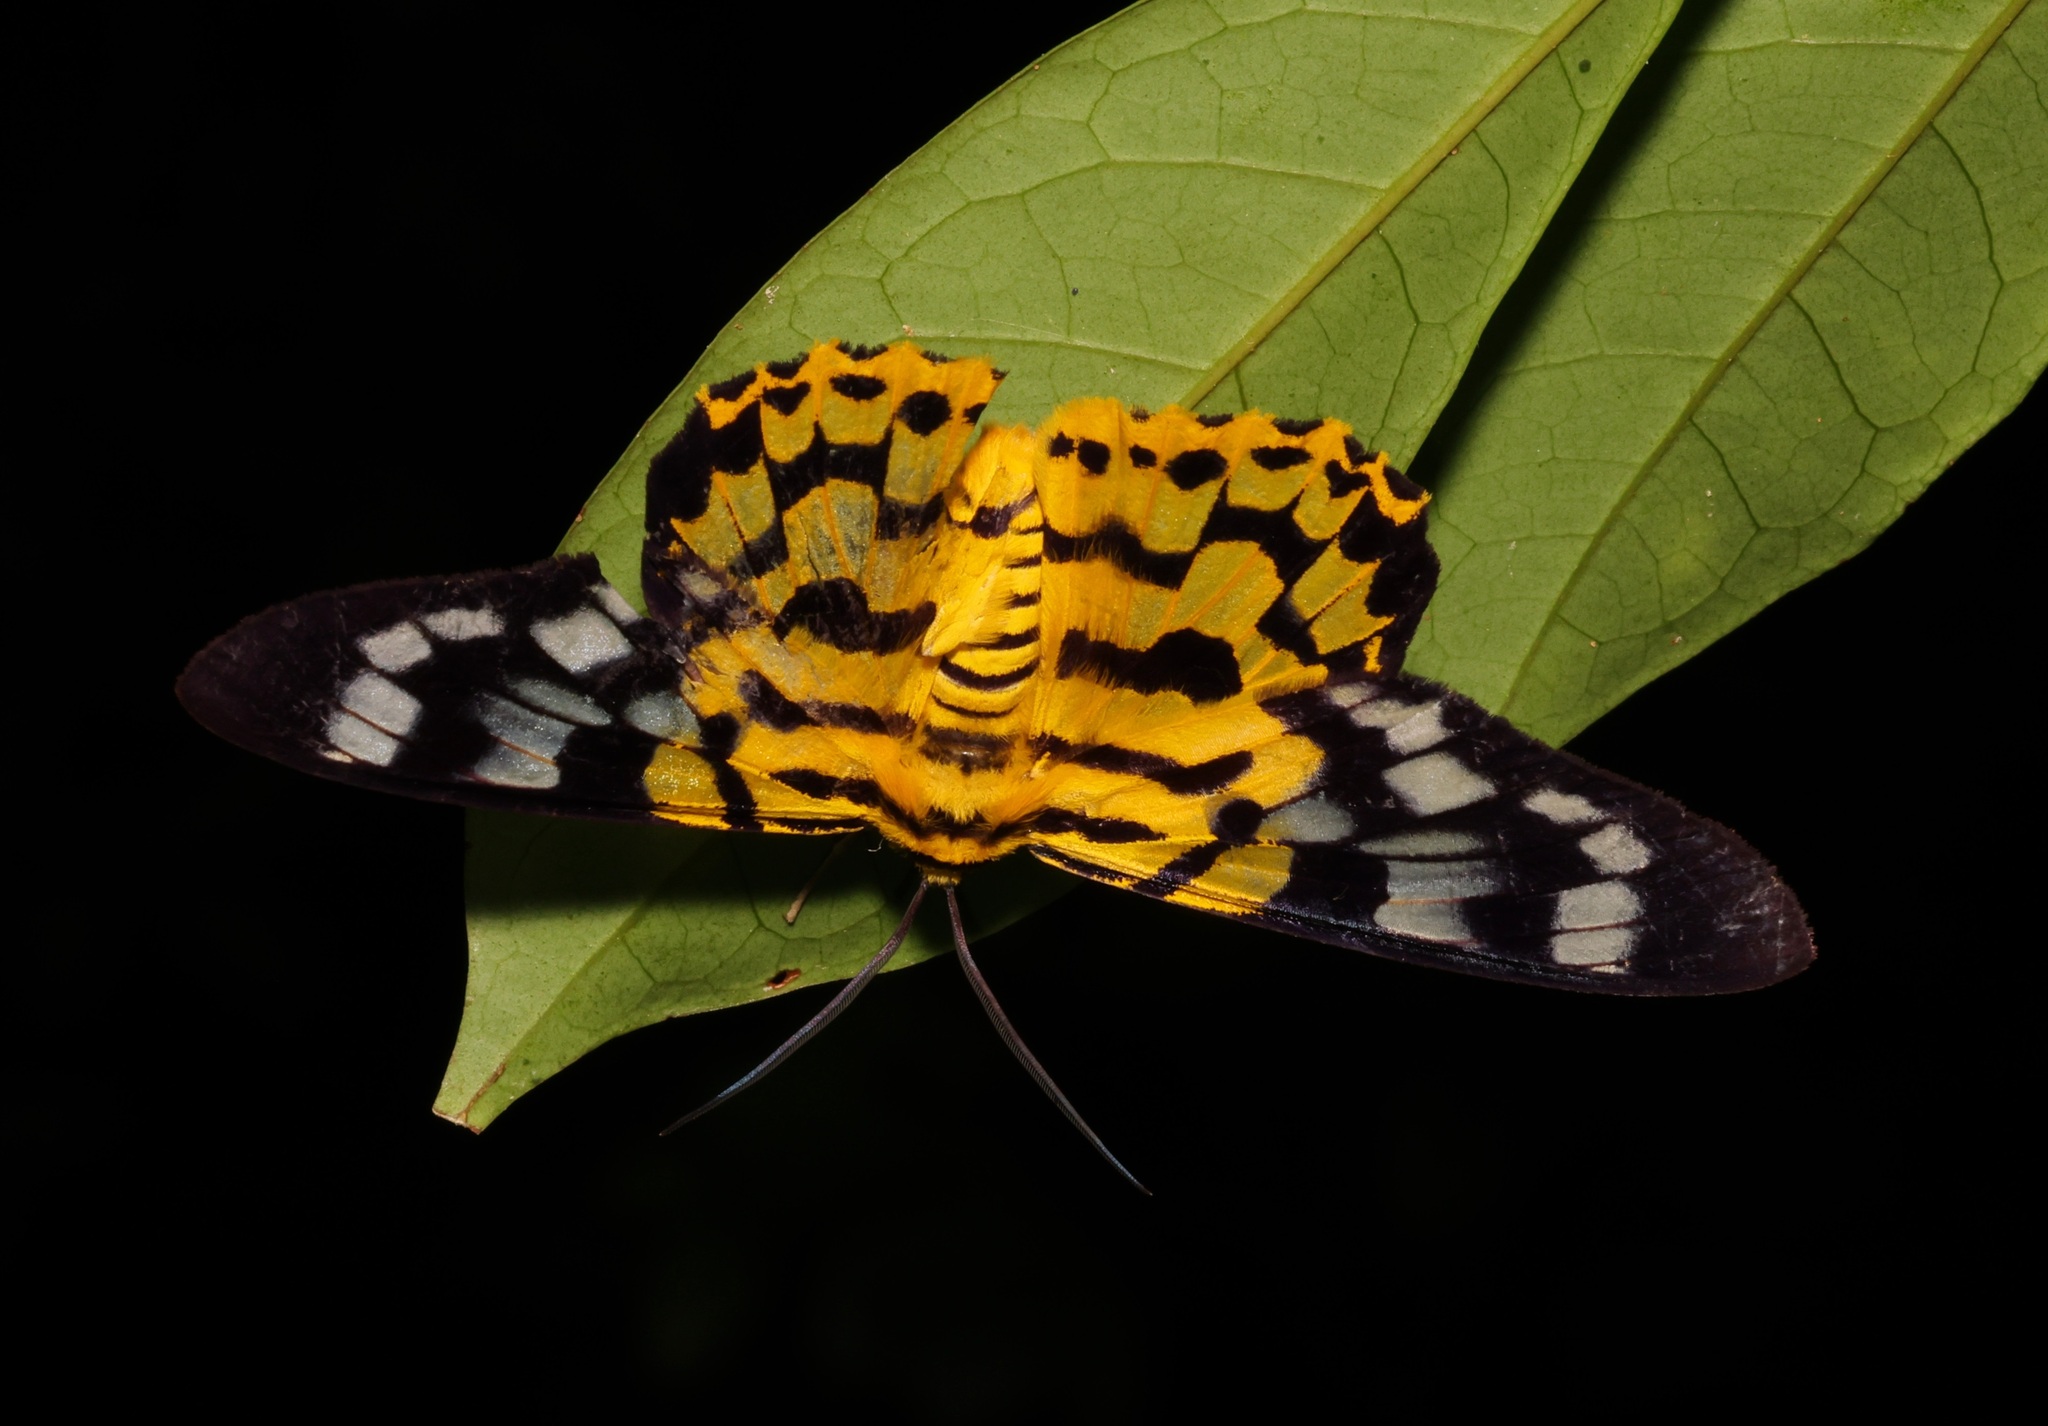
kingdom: Animalia
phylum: Arthropoda
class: Insecta
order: Lepidoptera
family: Geometridae
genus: Dysphania
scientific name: Dysphania militaris
